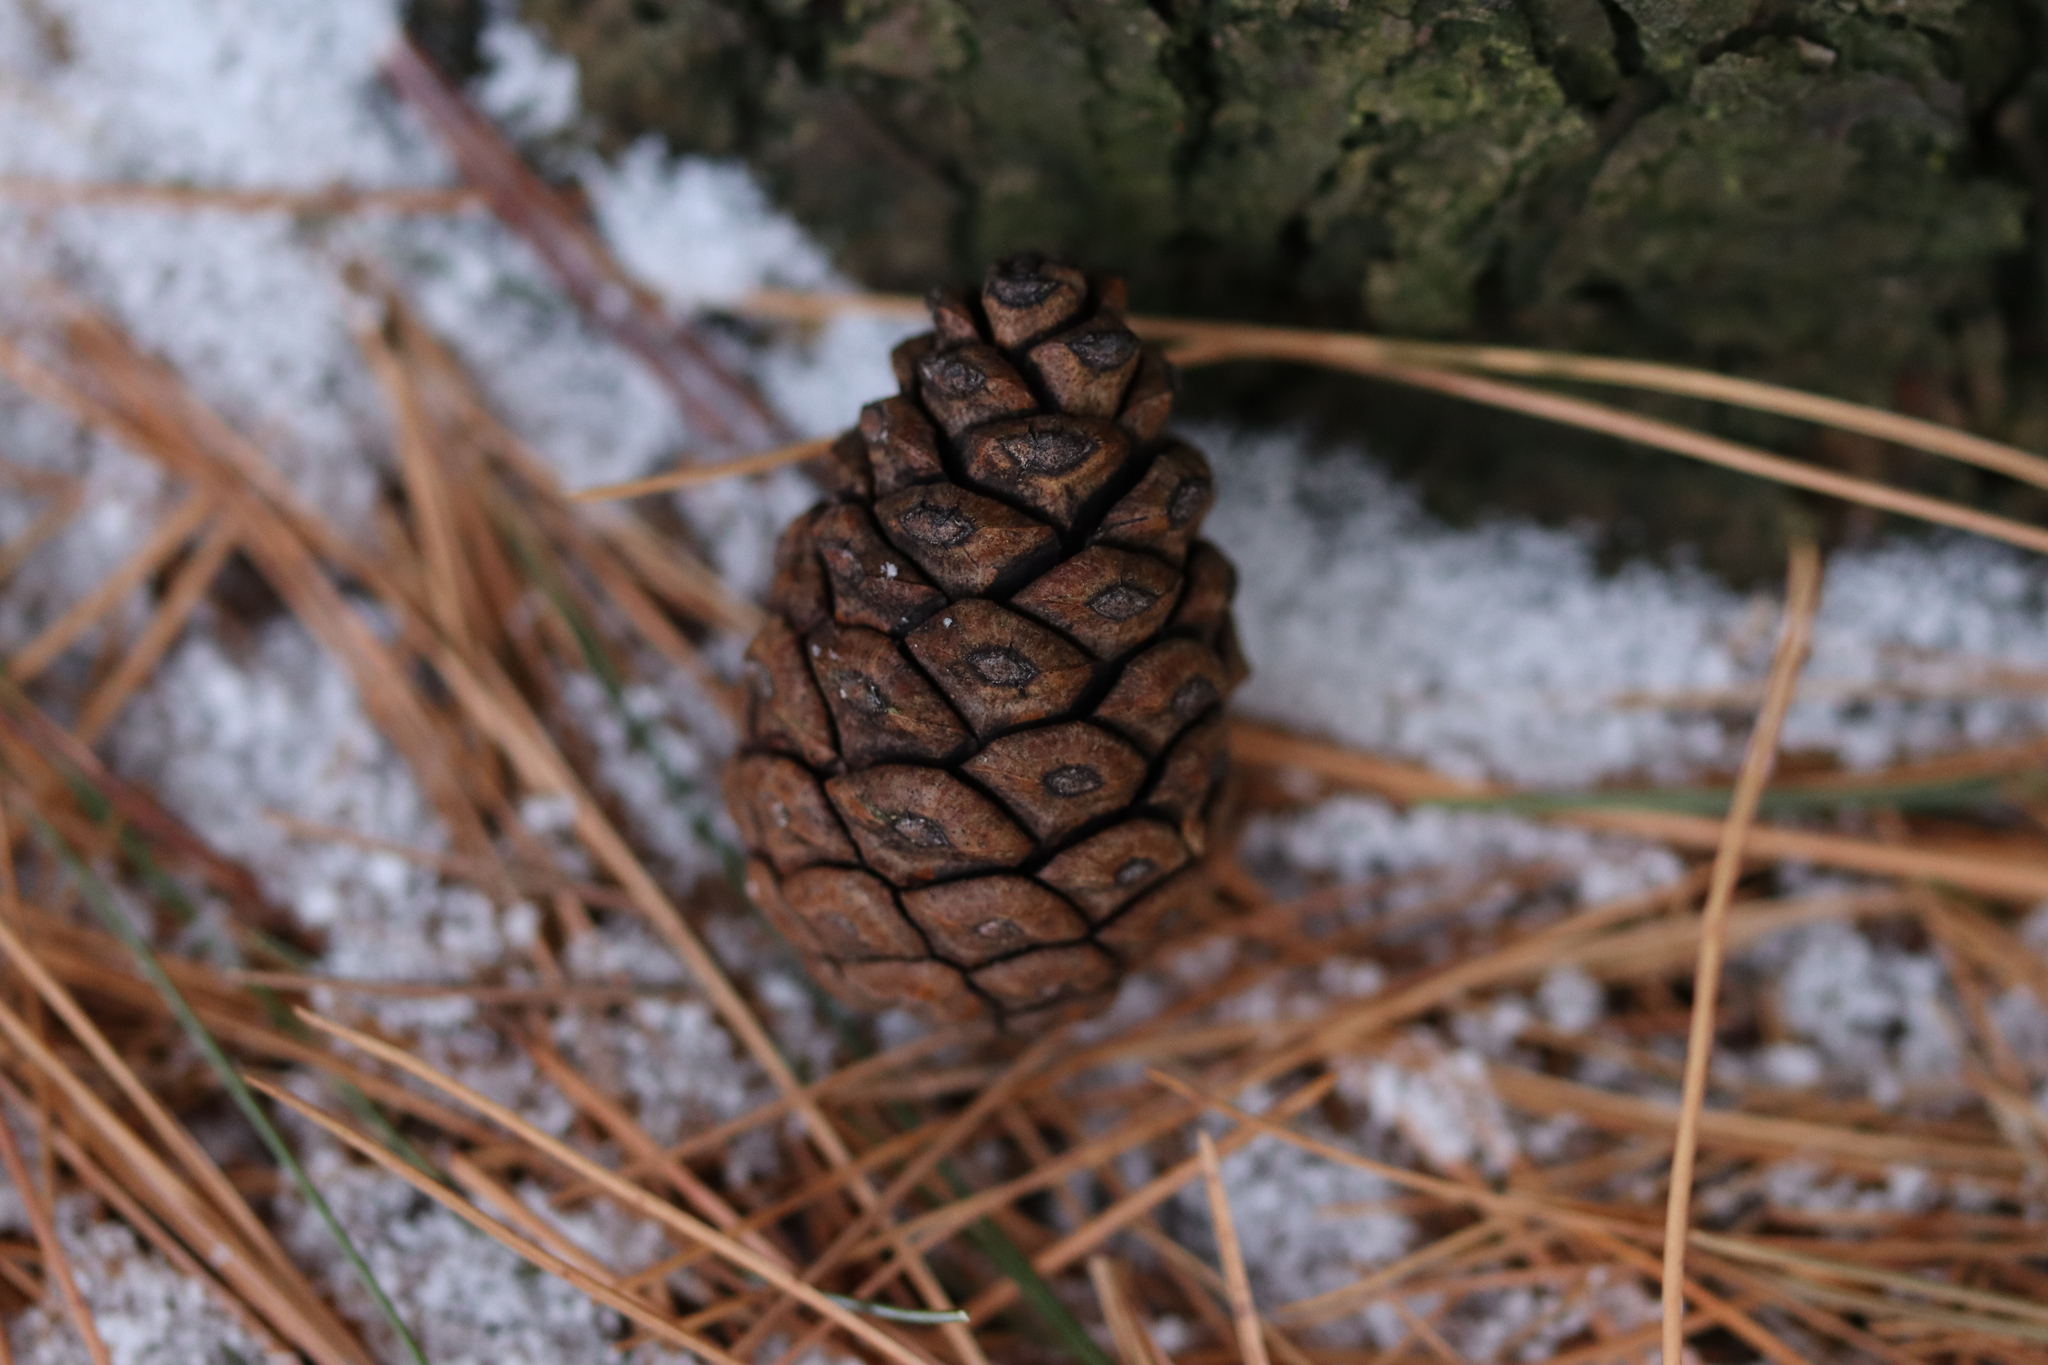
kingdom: Plantae
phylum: Tracheophyta
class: Pinopsida
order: Pinales
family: Pinaceae
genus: Pinus
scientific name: Pinus resinosa
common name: Norway pine
